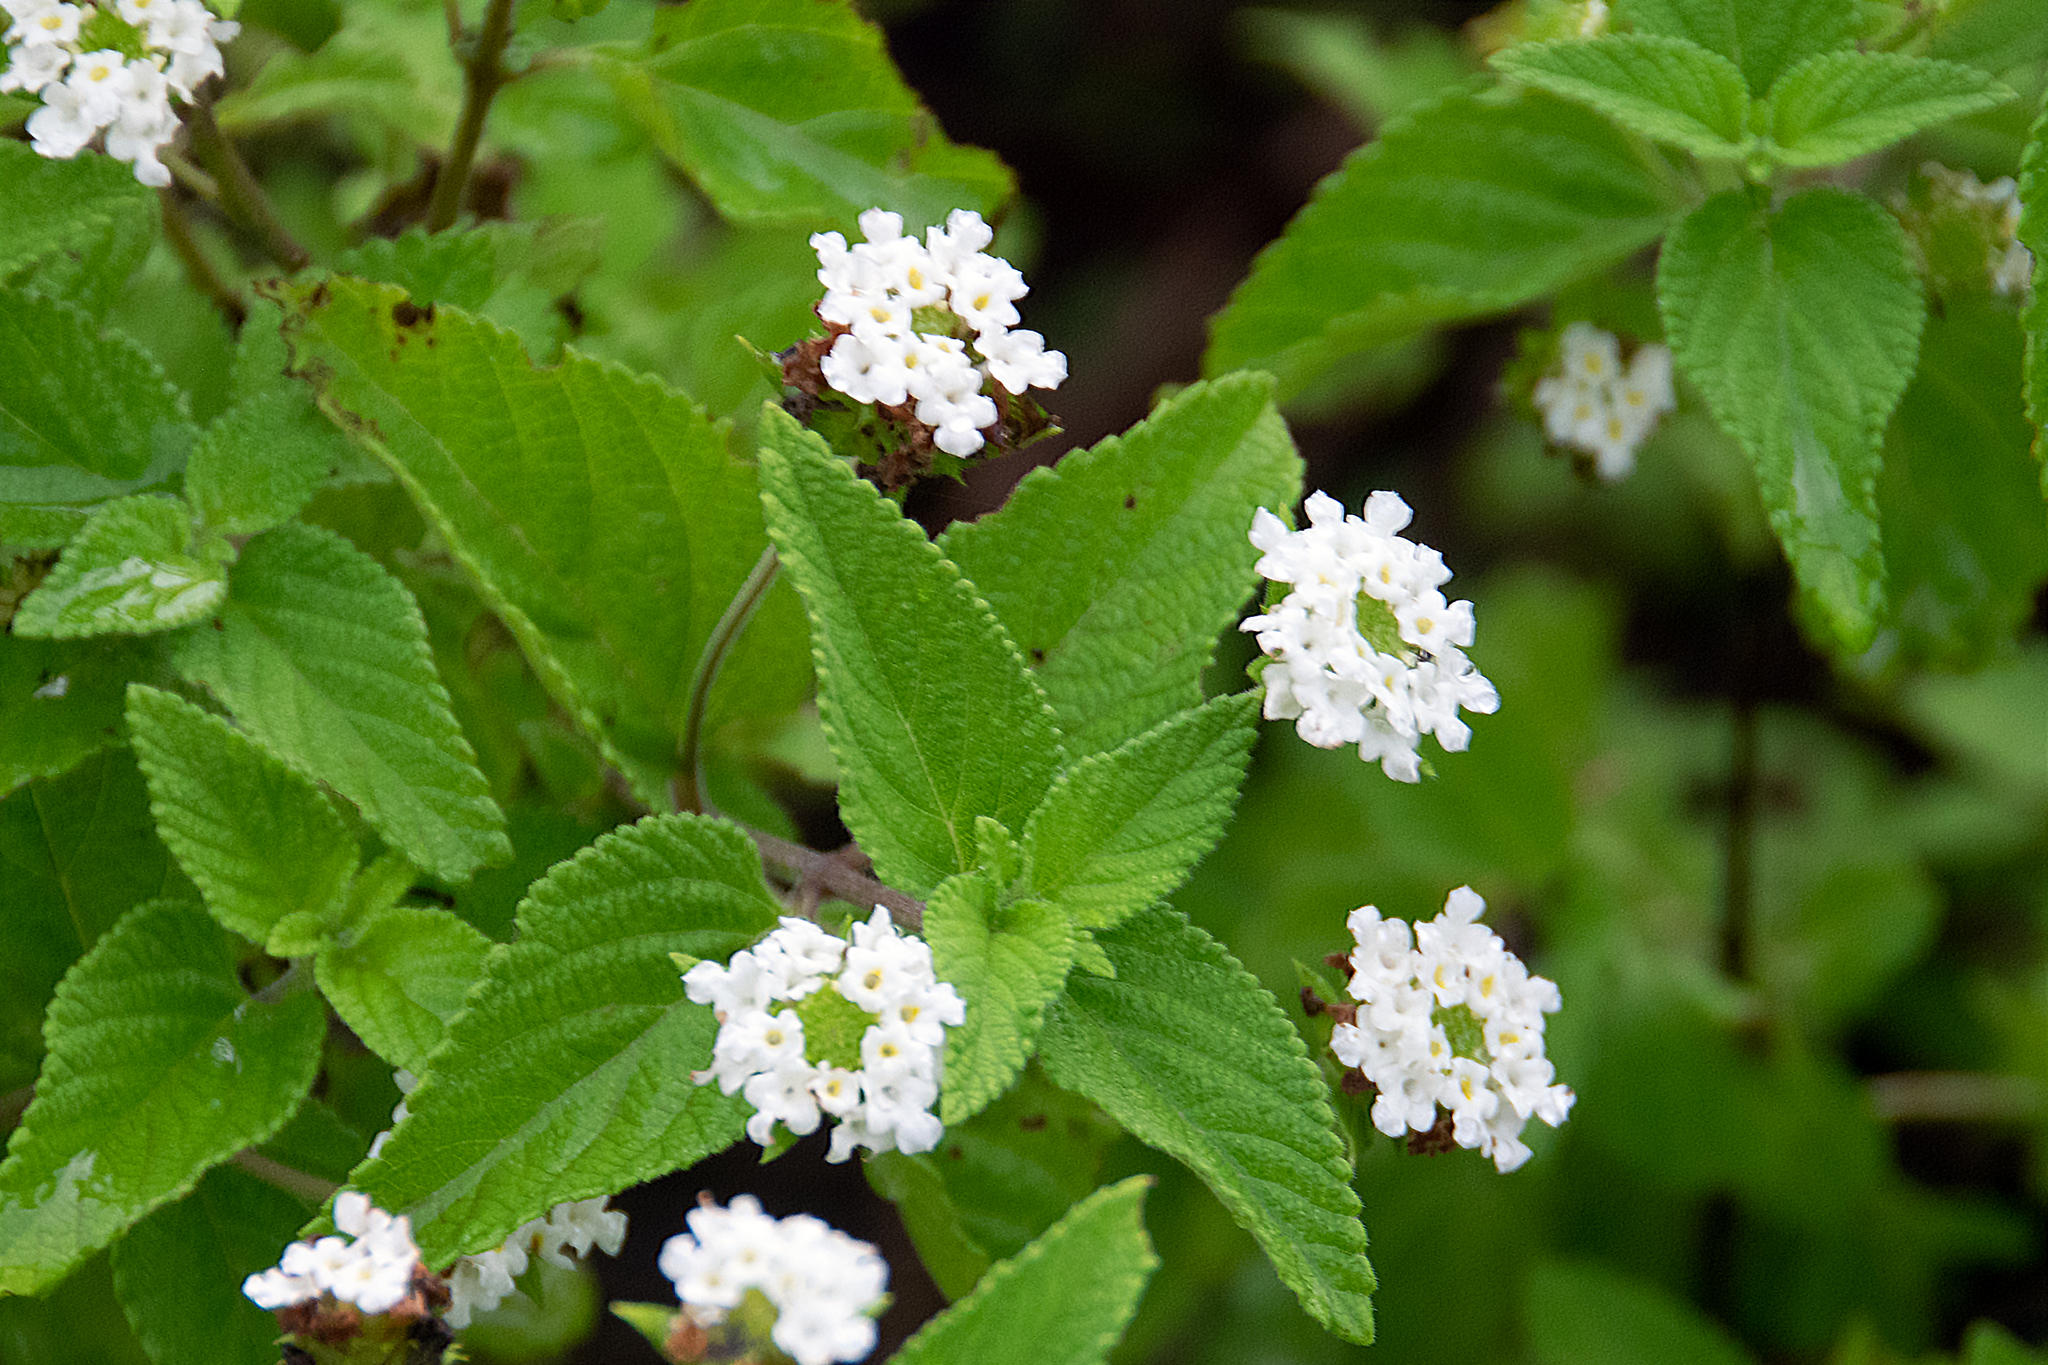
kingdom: Plantae
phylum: Tracheophyta
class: Magnoliopsida
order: Lamiales
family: Verbenaceae
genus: Lantana
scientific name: Lantana peduncularis
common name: Galapagos lantana
